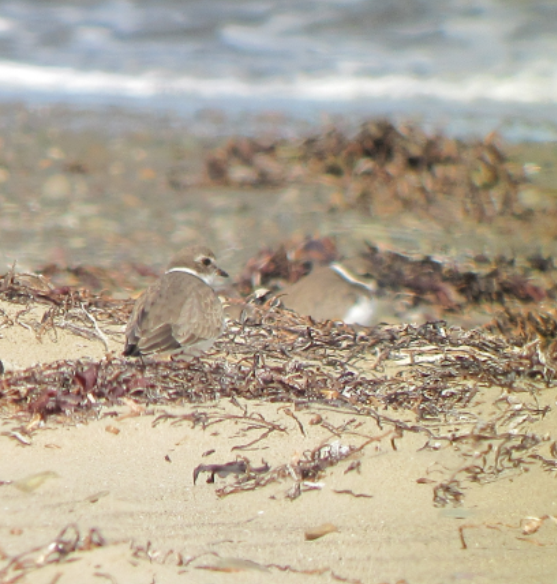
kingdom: Animalia
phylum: Chordata
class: Aves
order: Charadriiformes
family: Charadriidae
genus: Charadrius
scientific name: Charadrius semipalmatus
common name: Semipalmated plover
